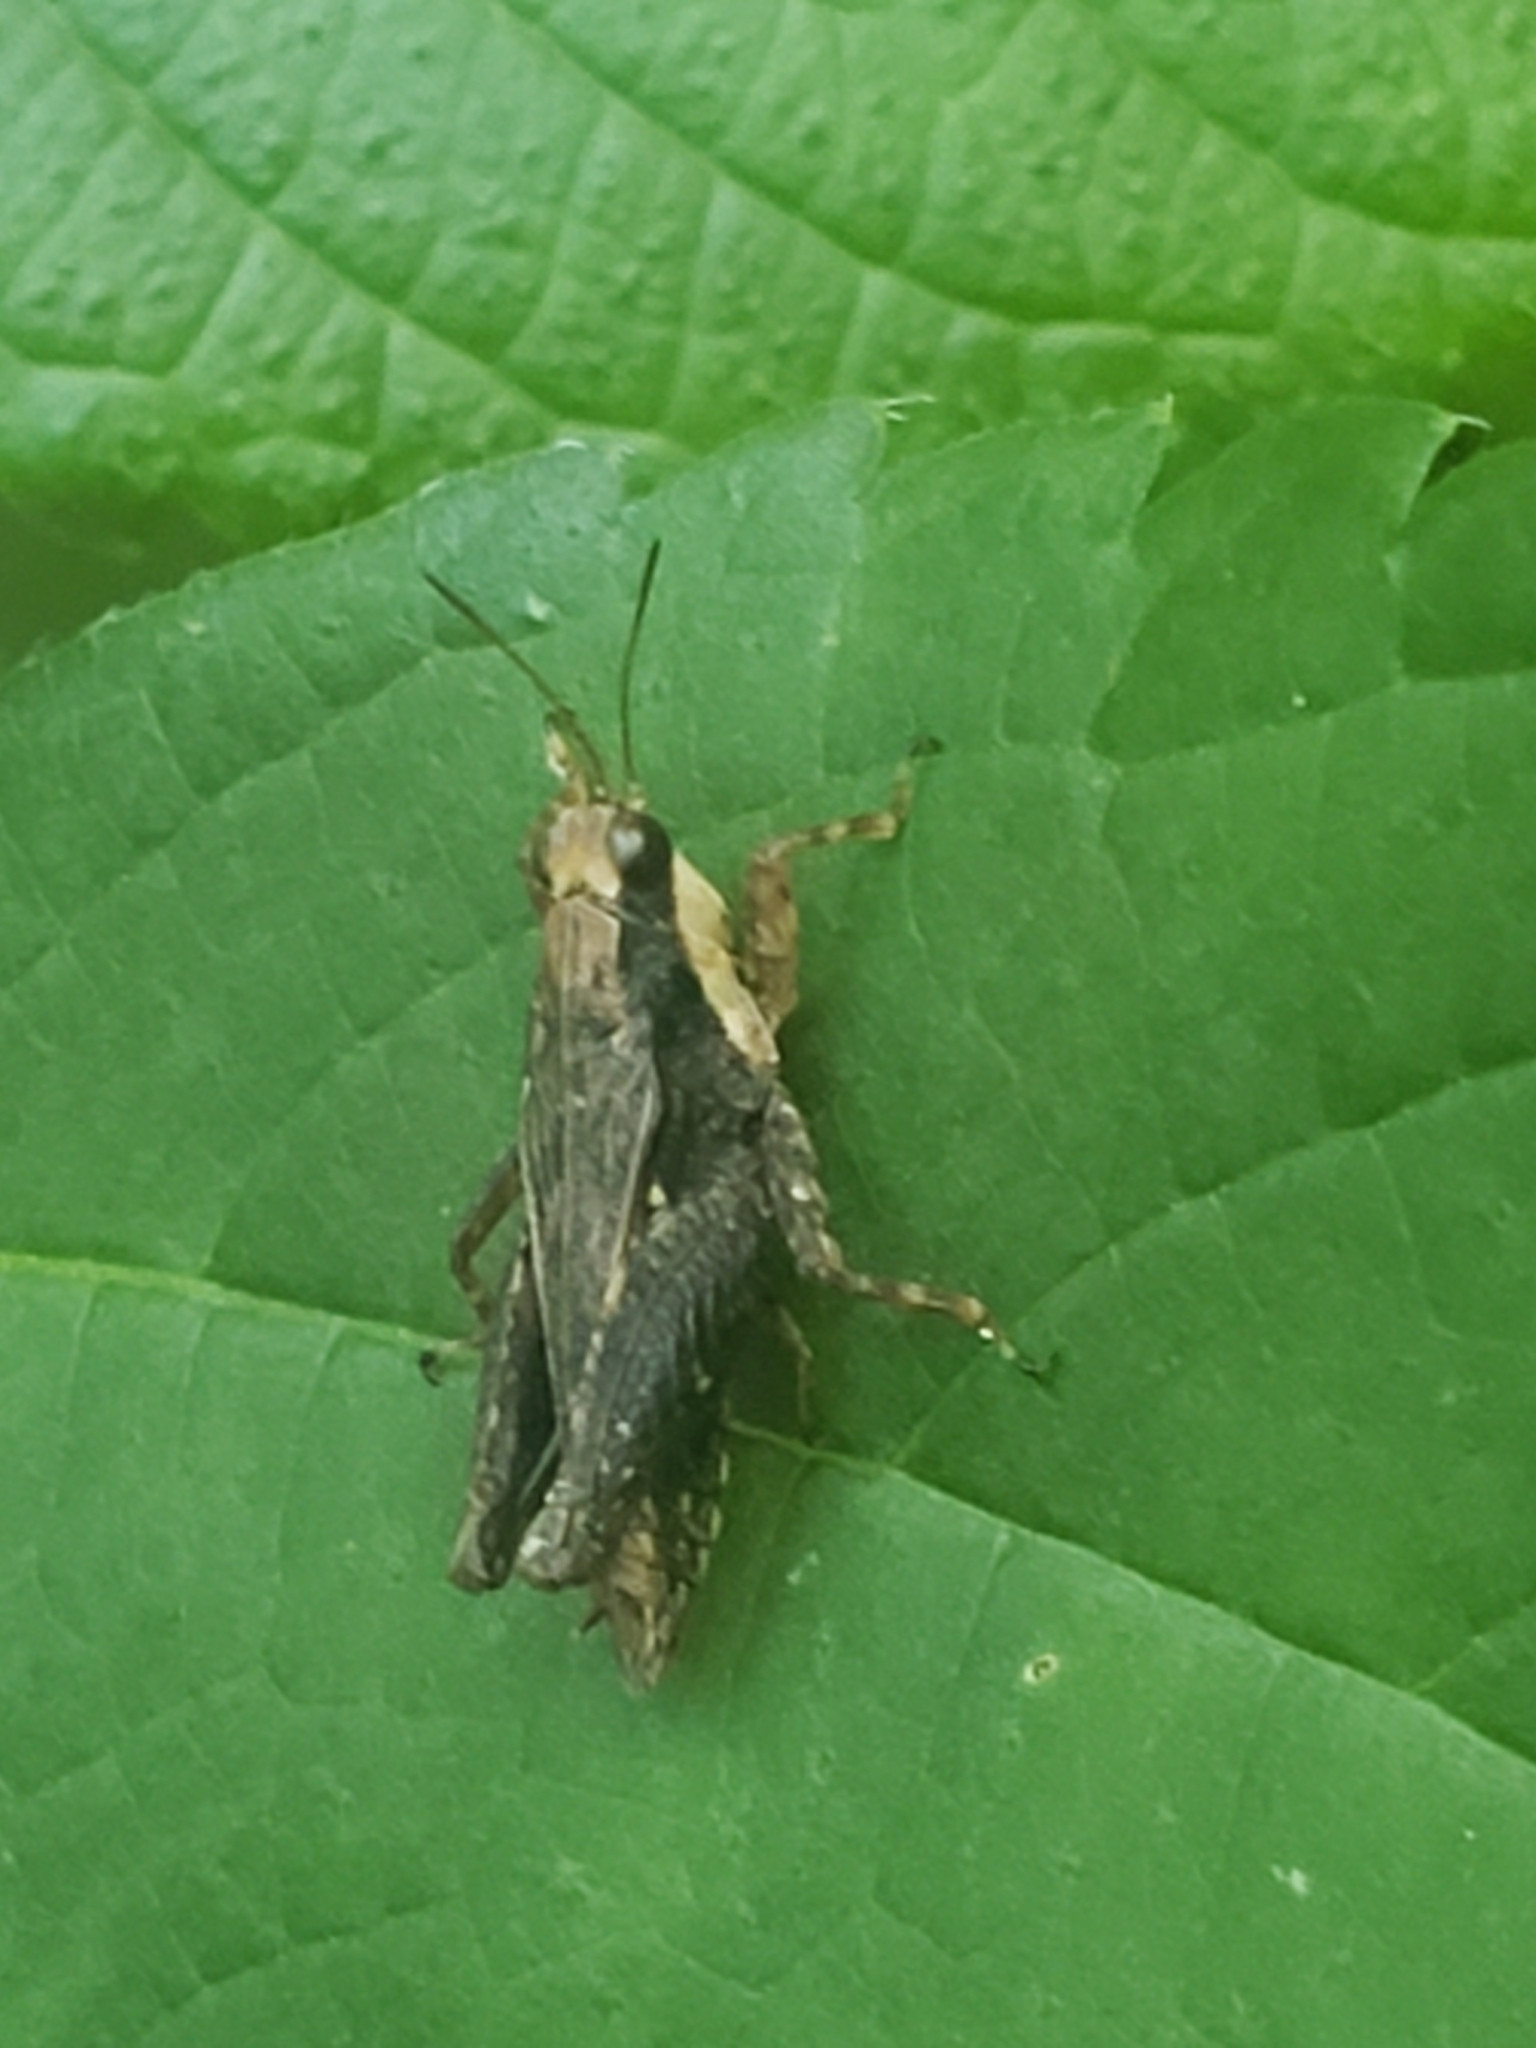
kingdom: Animalia
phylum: Arthropoda
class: Insecta
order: Orthoptera
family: Tetrigidae
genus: Tettigidea
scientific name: Tettigidea laterale
